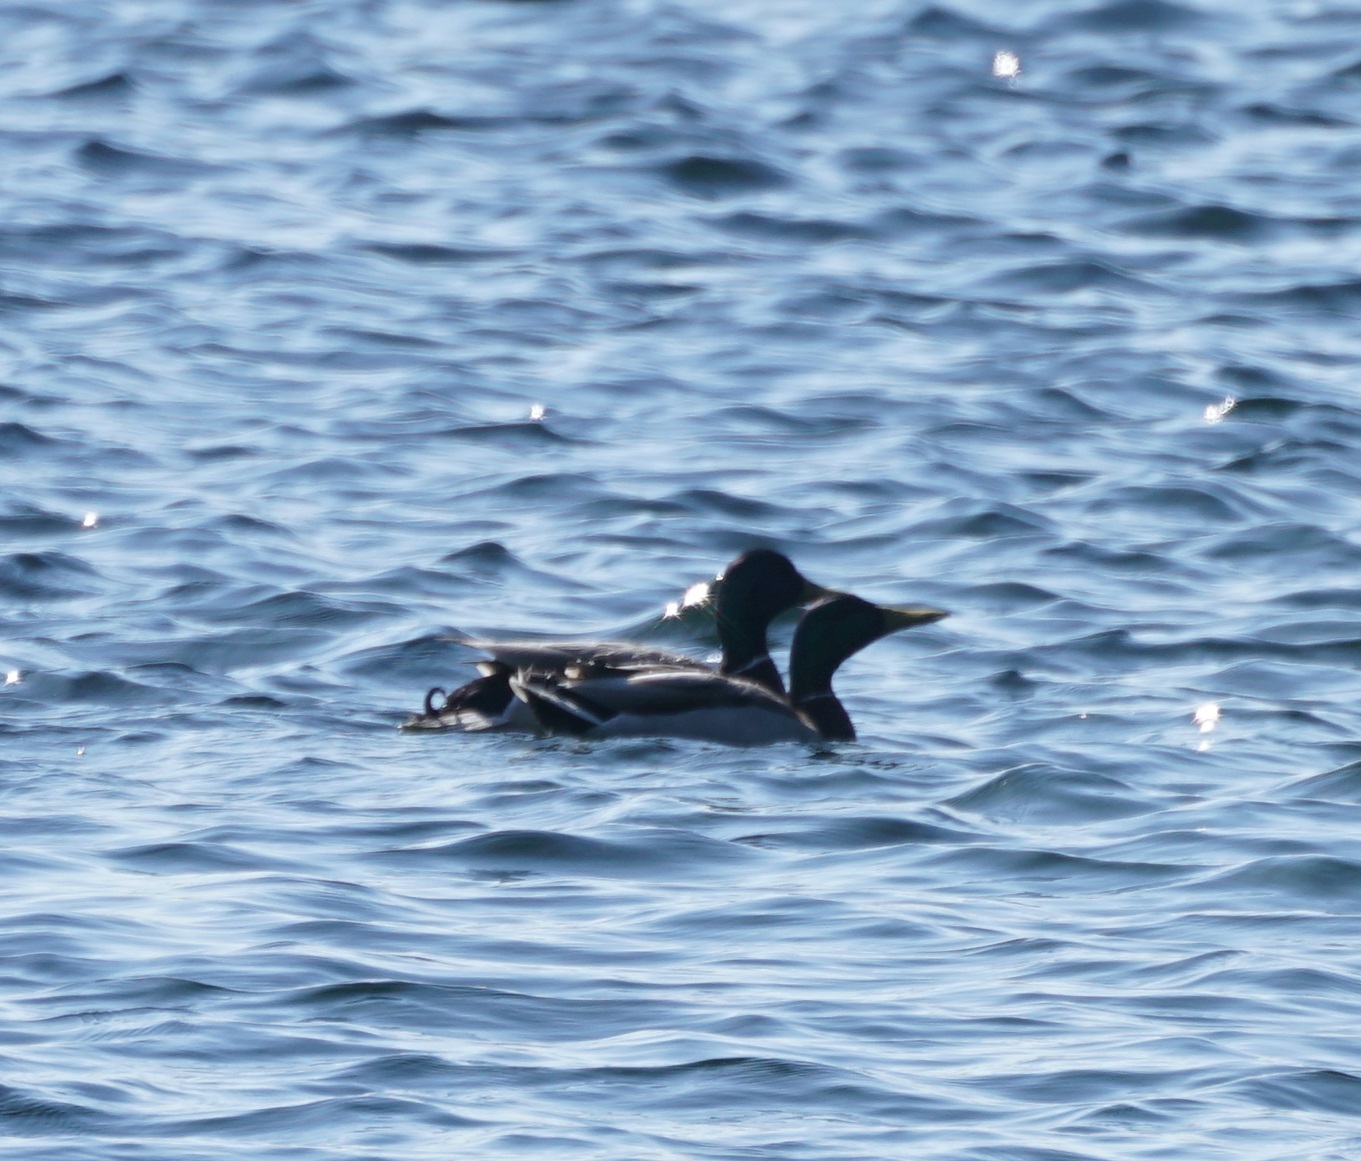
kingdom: Animalia
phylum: Chordata
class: Aves
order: Anseriformes
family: Anatidae
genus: Anas
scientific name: Anas platyrhynchos
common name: Mallard
